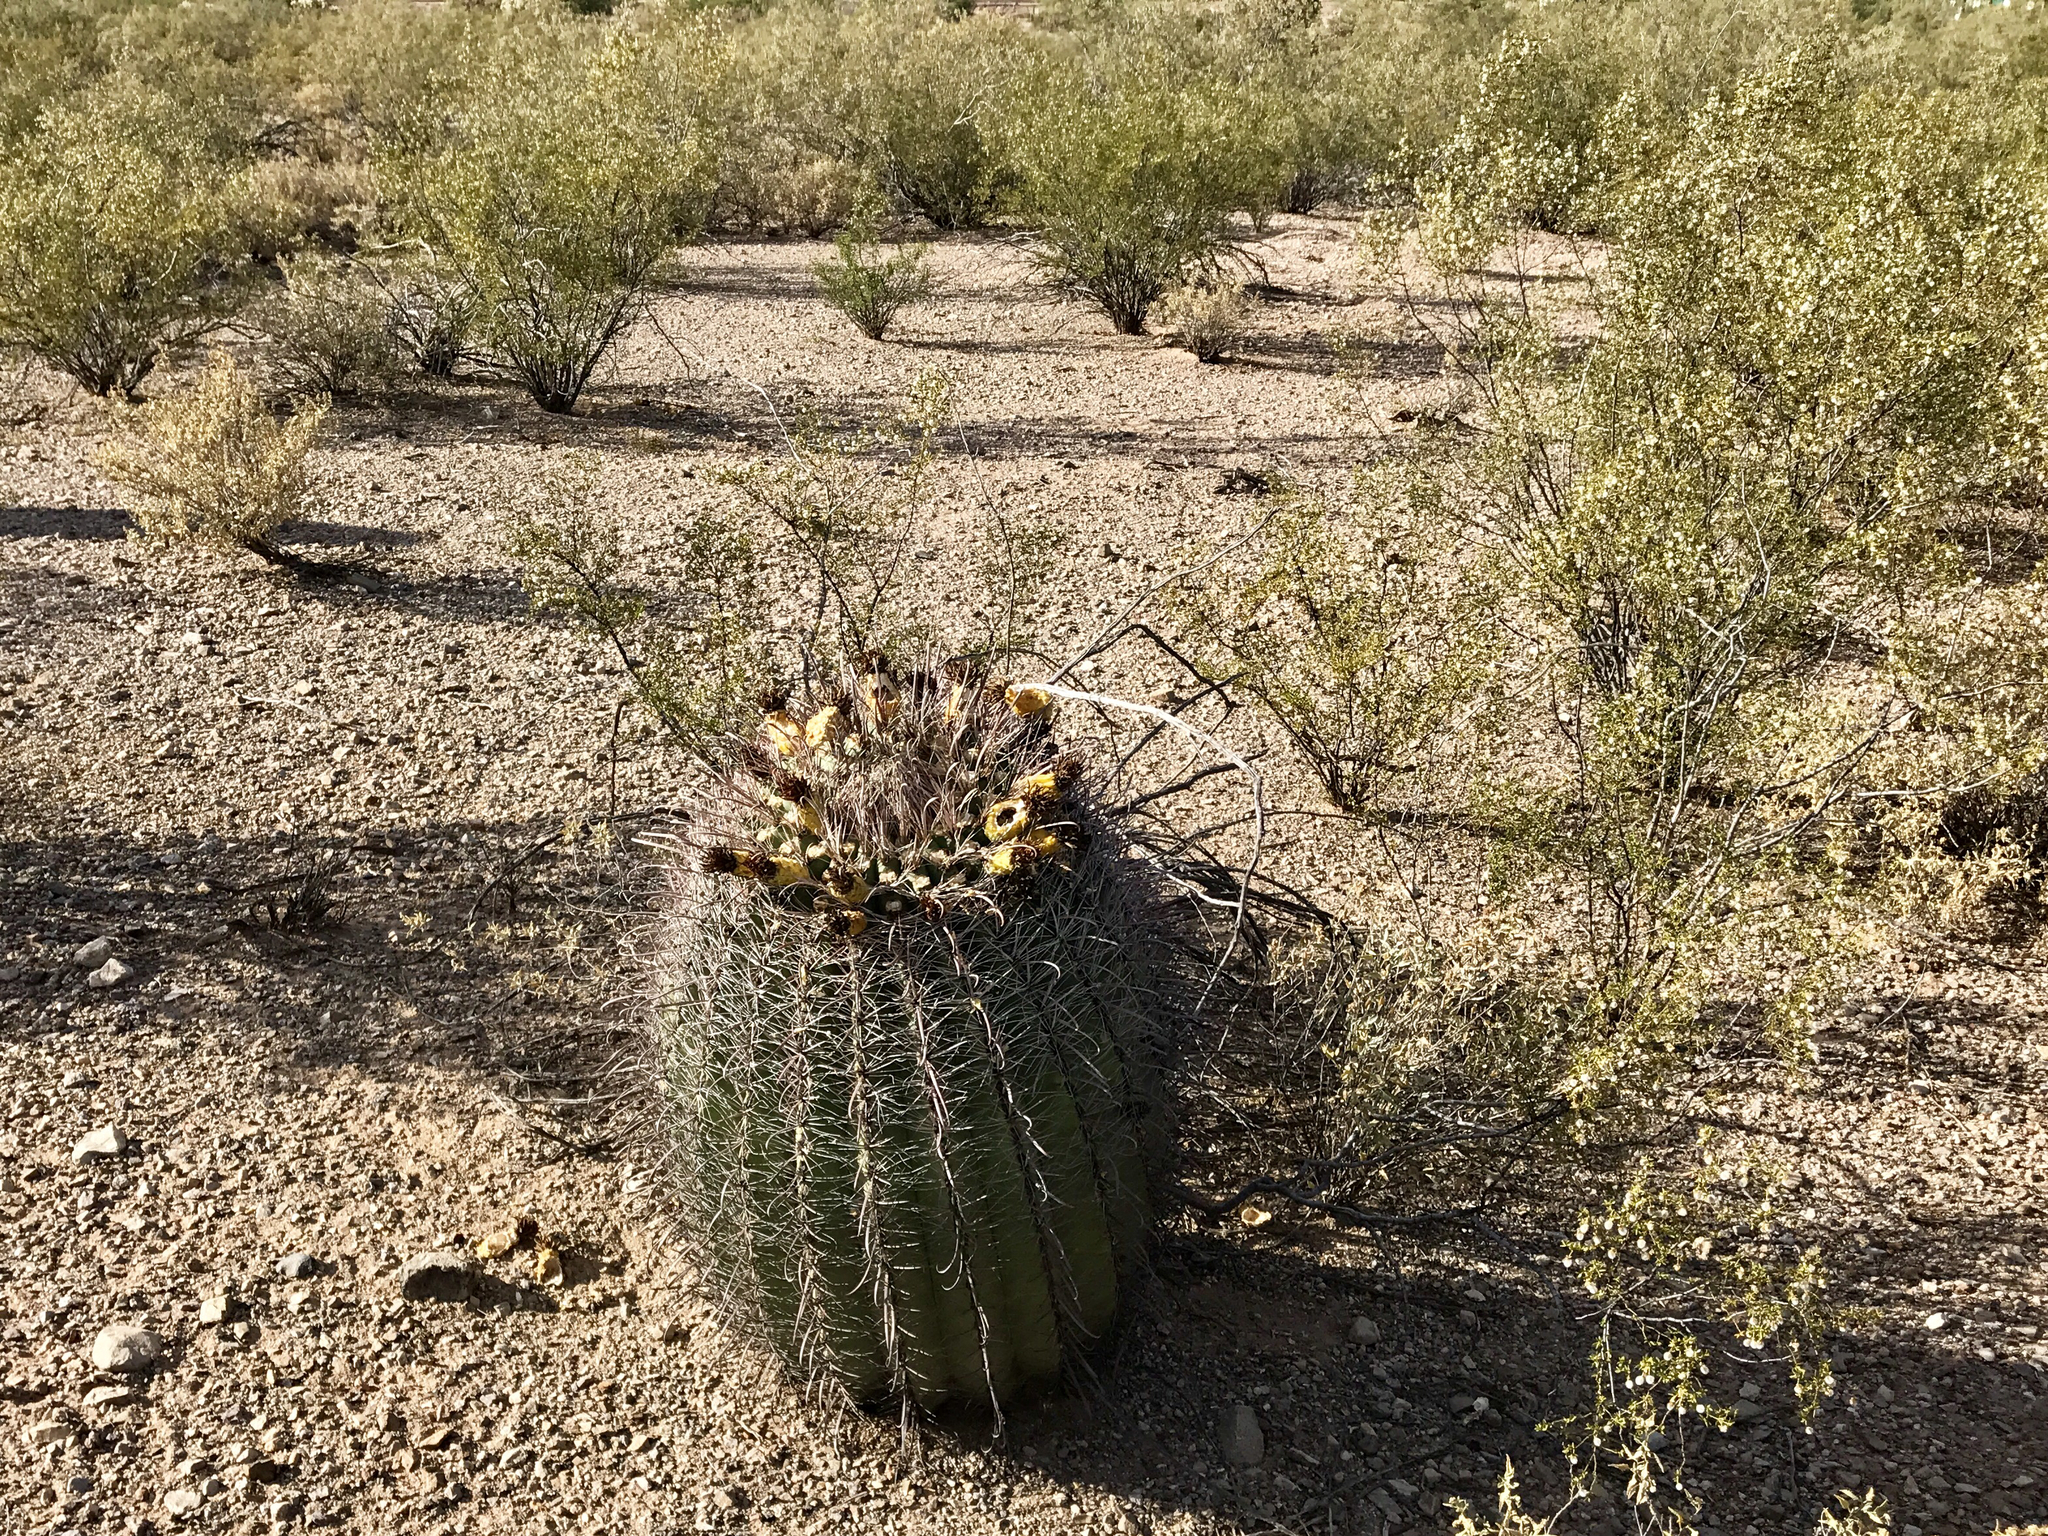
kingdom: Plantae
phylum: Tracheophyta
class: Magnoliopsida
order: Caryophyllales
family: Cactaceae
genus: Ferocactus
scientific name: Ferocactus wislizeni
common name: Candy barrel cactus
